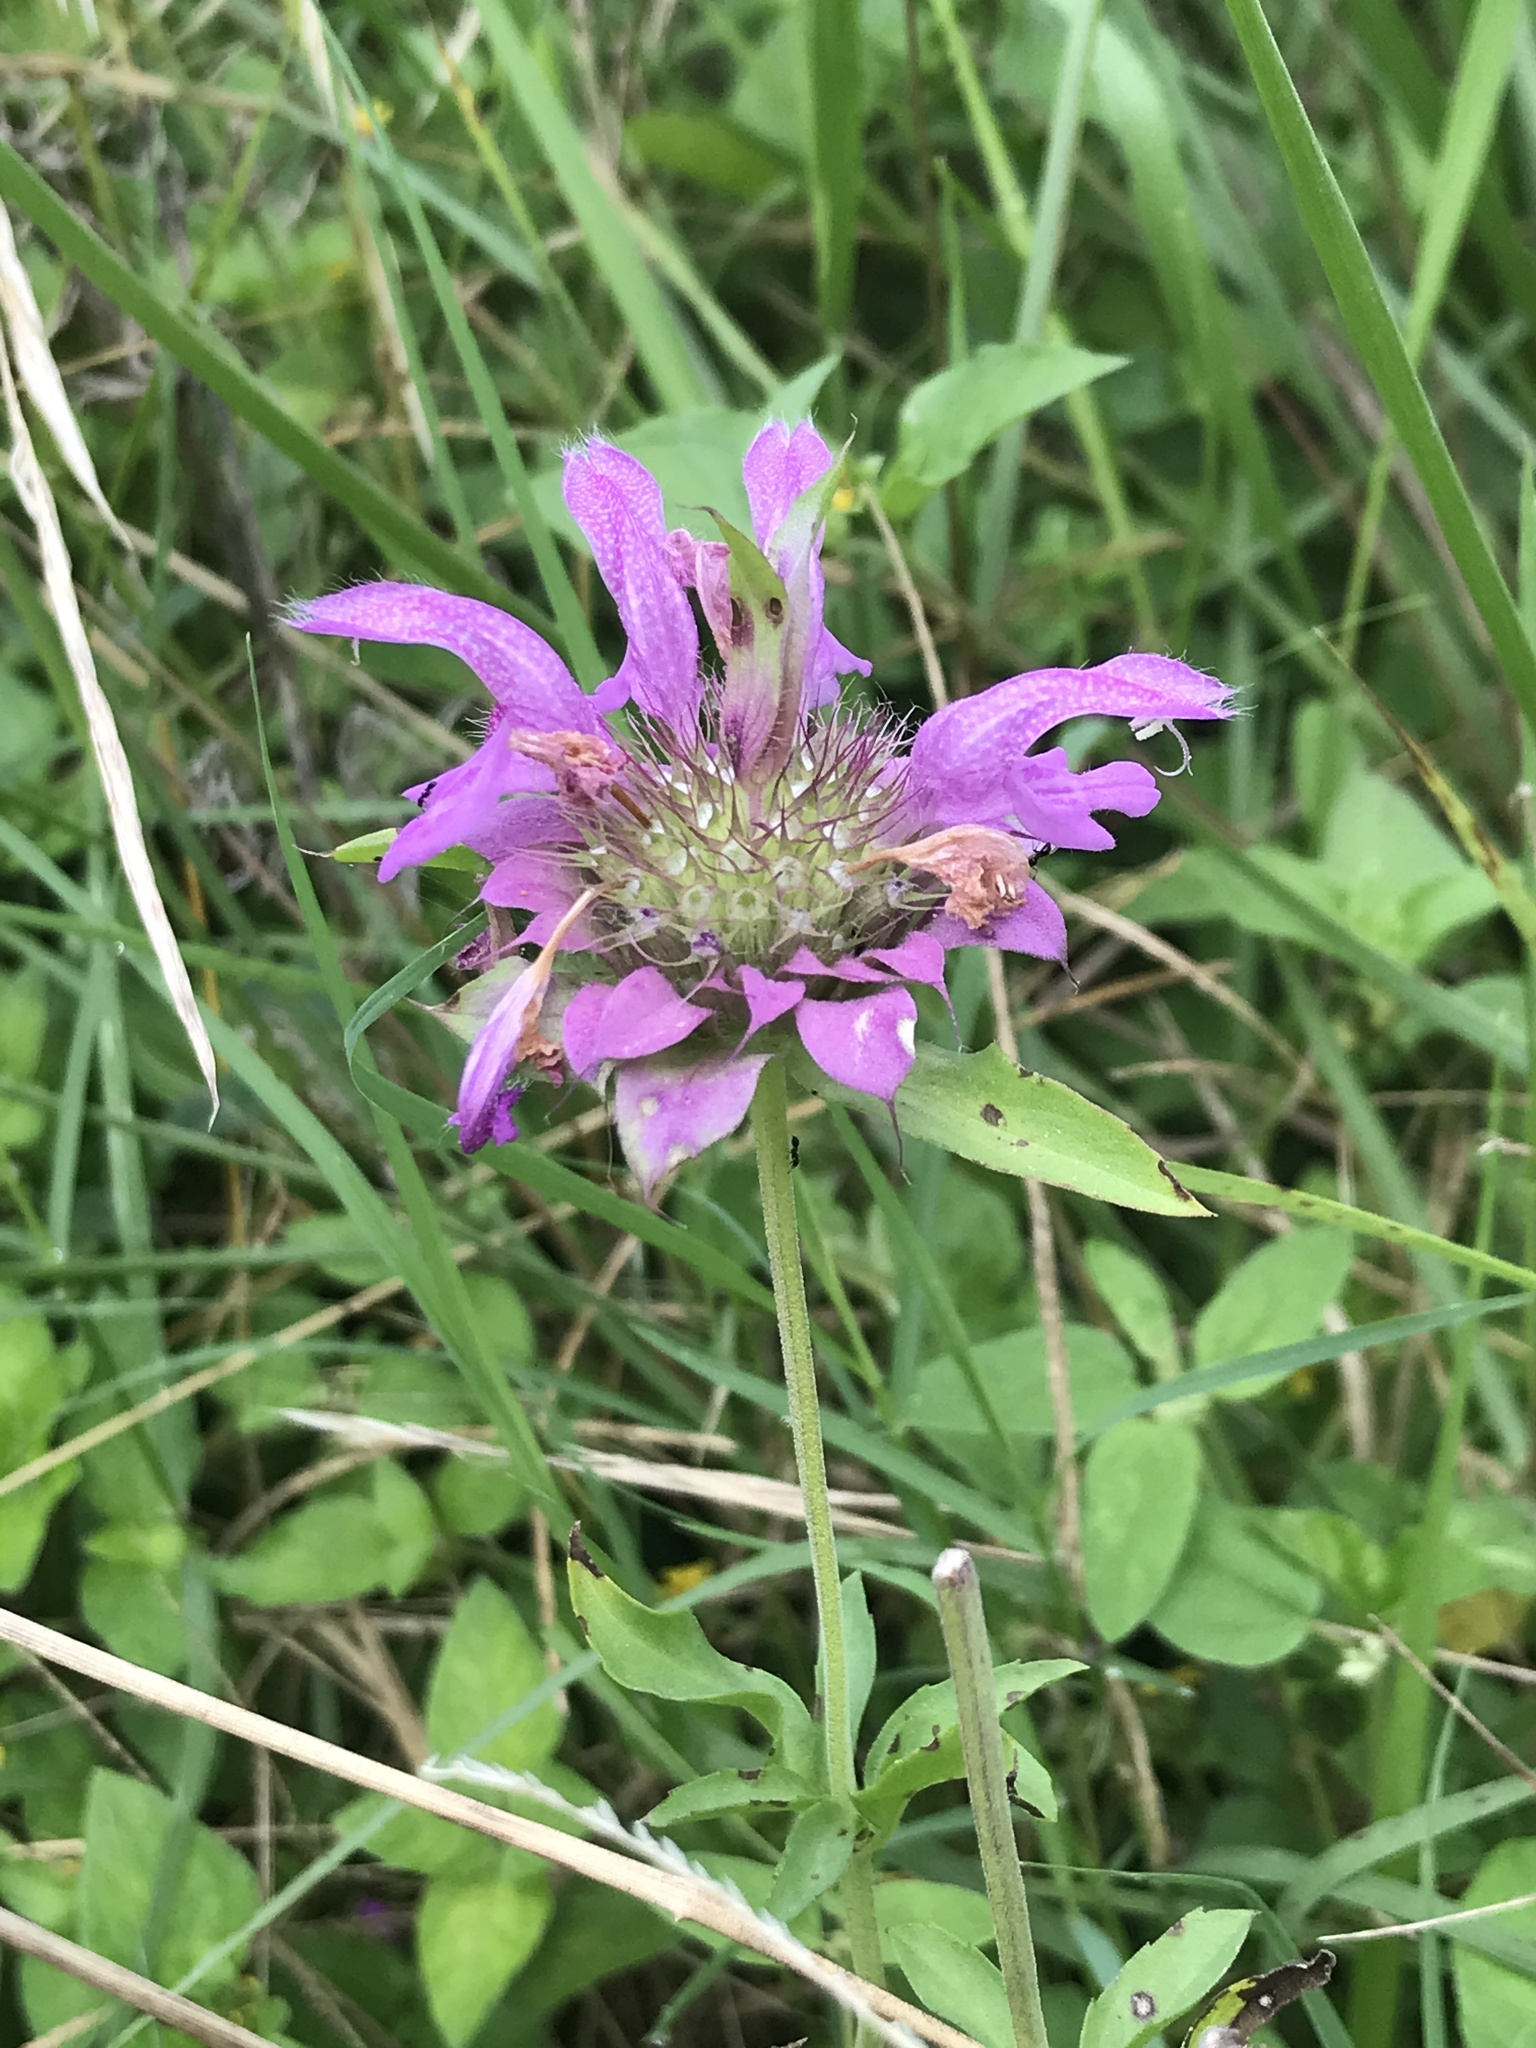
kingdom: Plantae
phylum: Tracheophyta
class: Magnoliopsida
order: Lamiales
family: Lamiaceae
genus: Monarda
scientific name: Monarda citriodora
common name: Lemon beebalm
